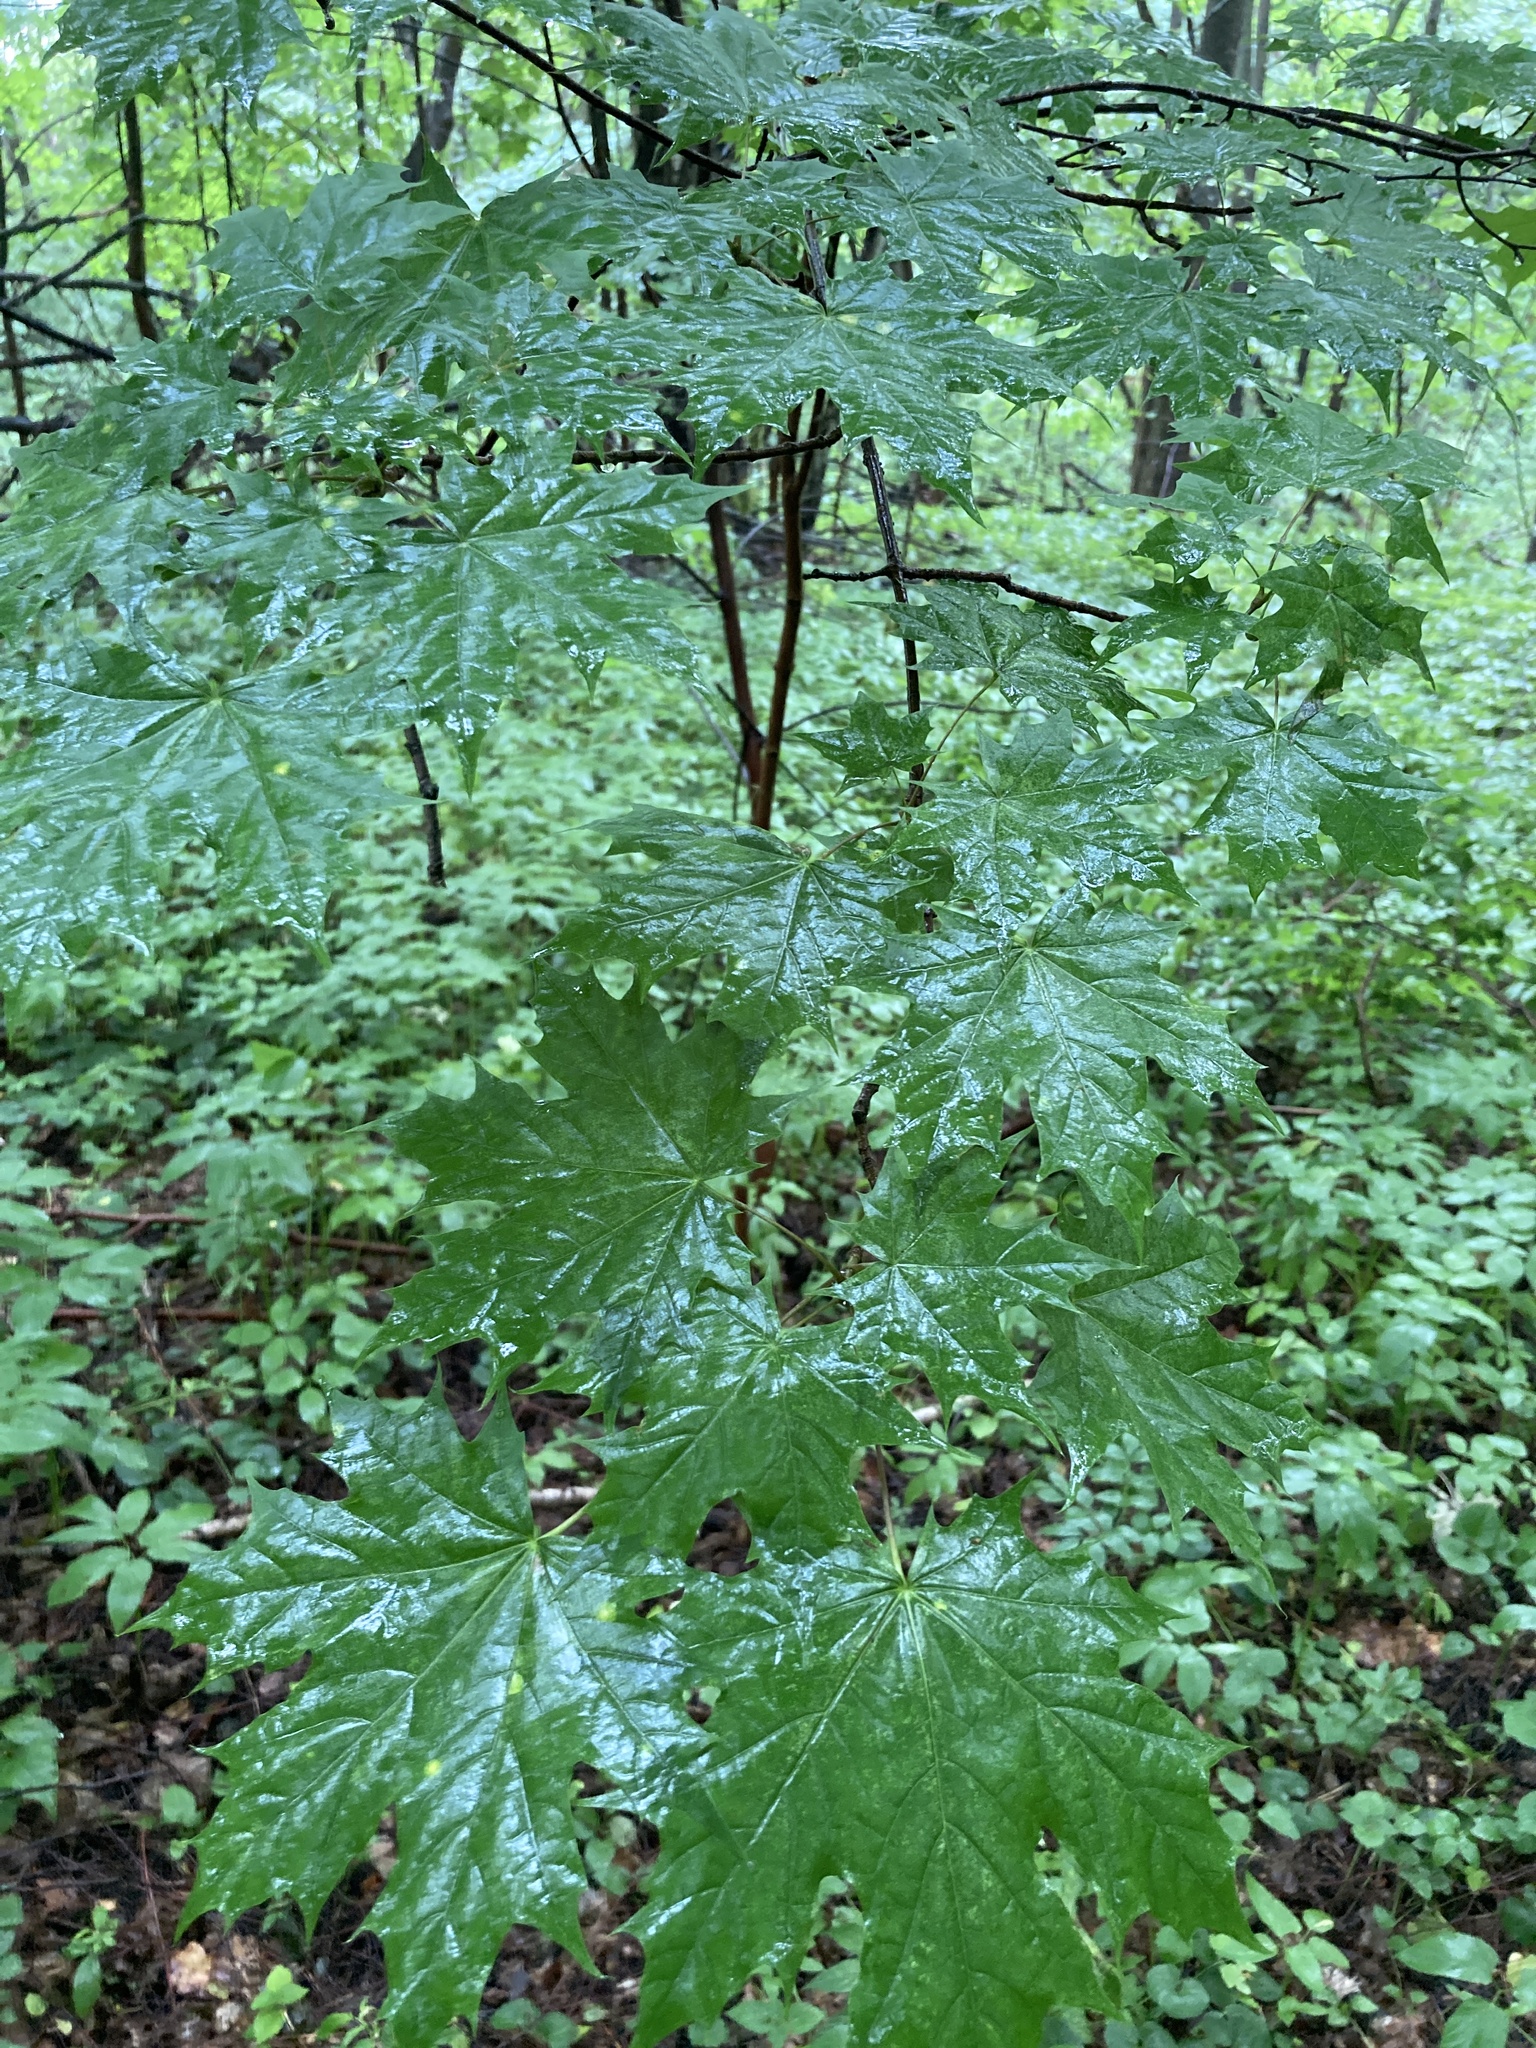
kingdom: Plantae
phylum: Tracheophyta
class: Magnoliopsida
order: Sapindales
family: Sapindaceae
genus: Acer
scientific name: Acer platanoides
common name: Norway maple
